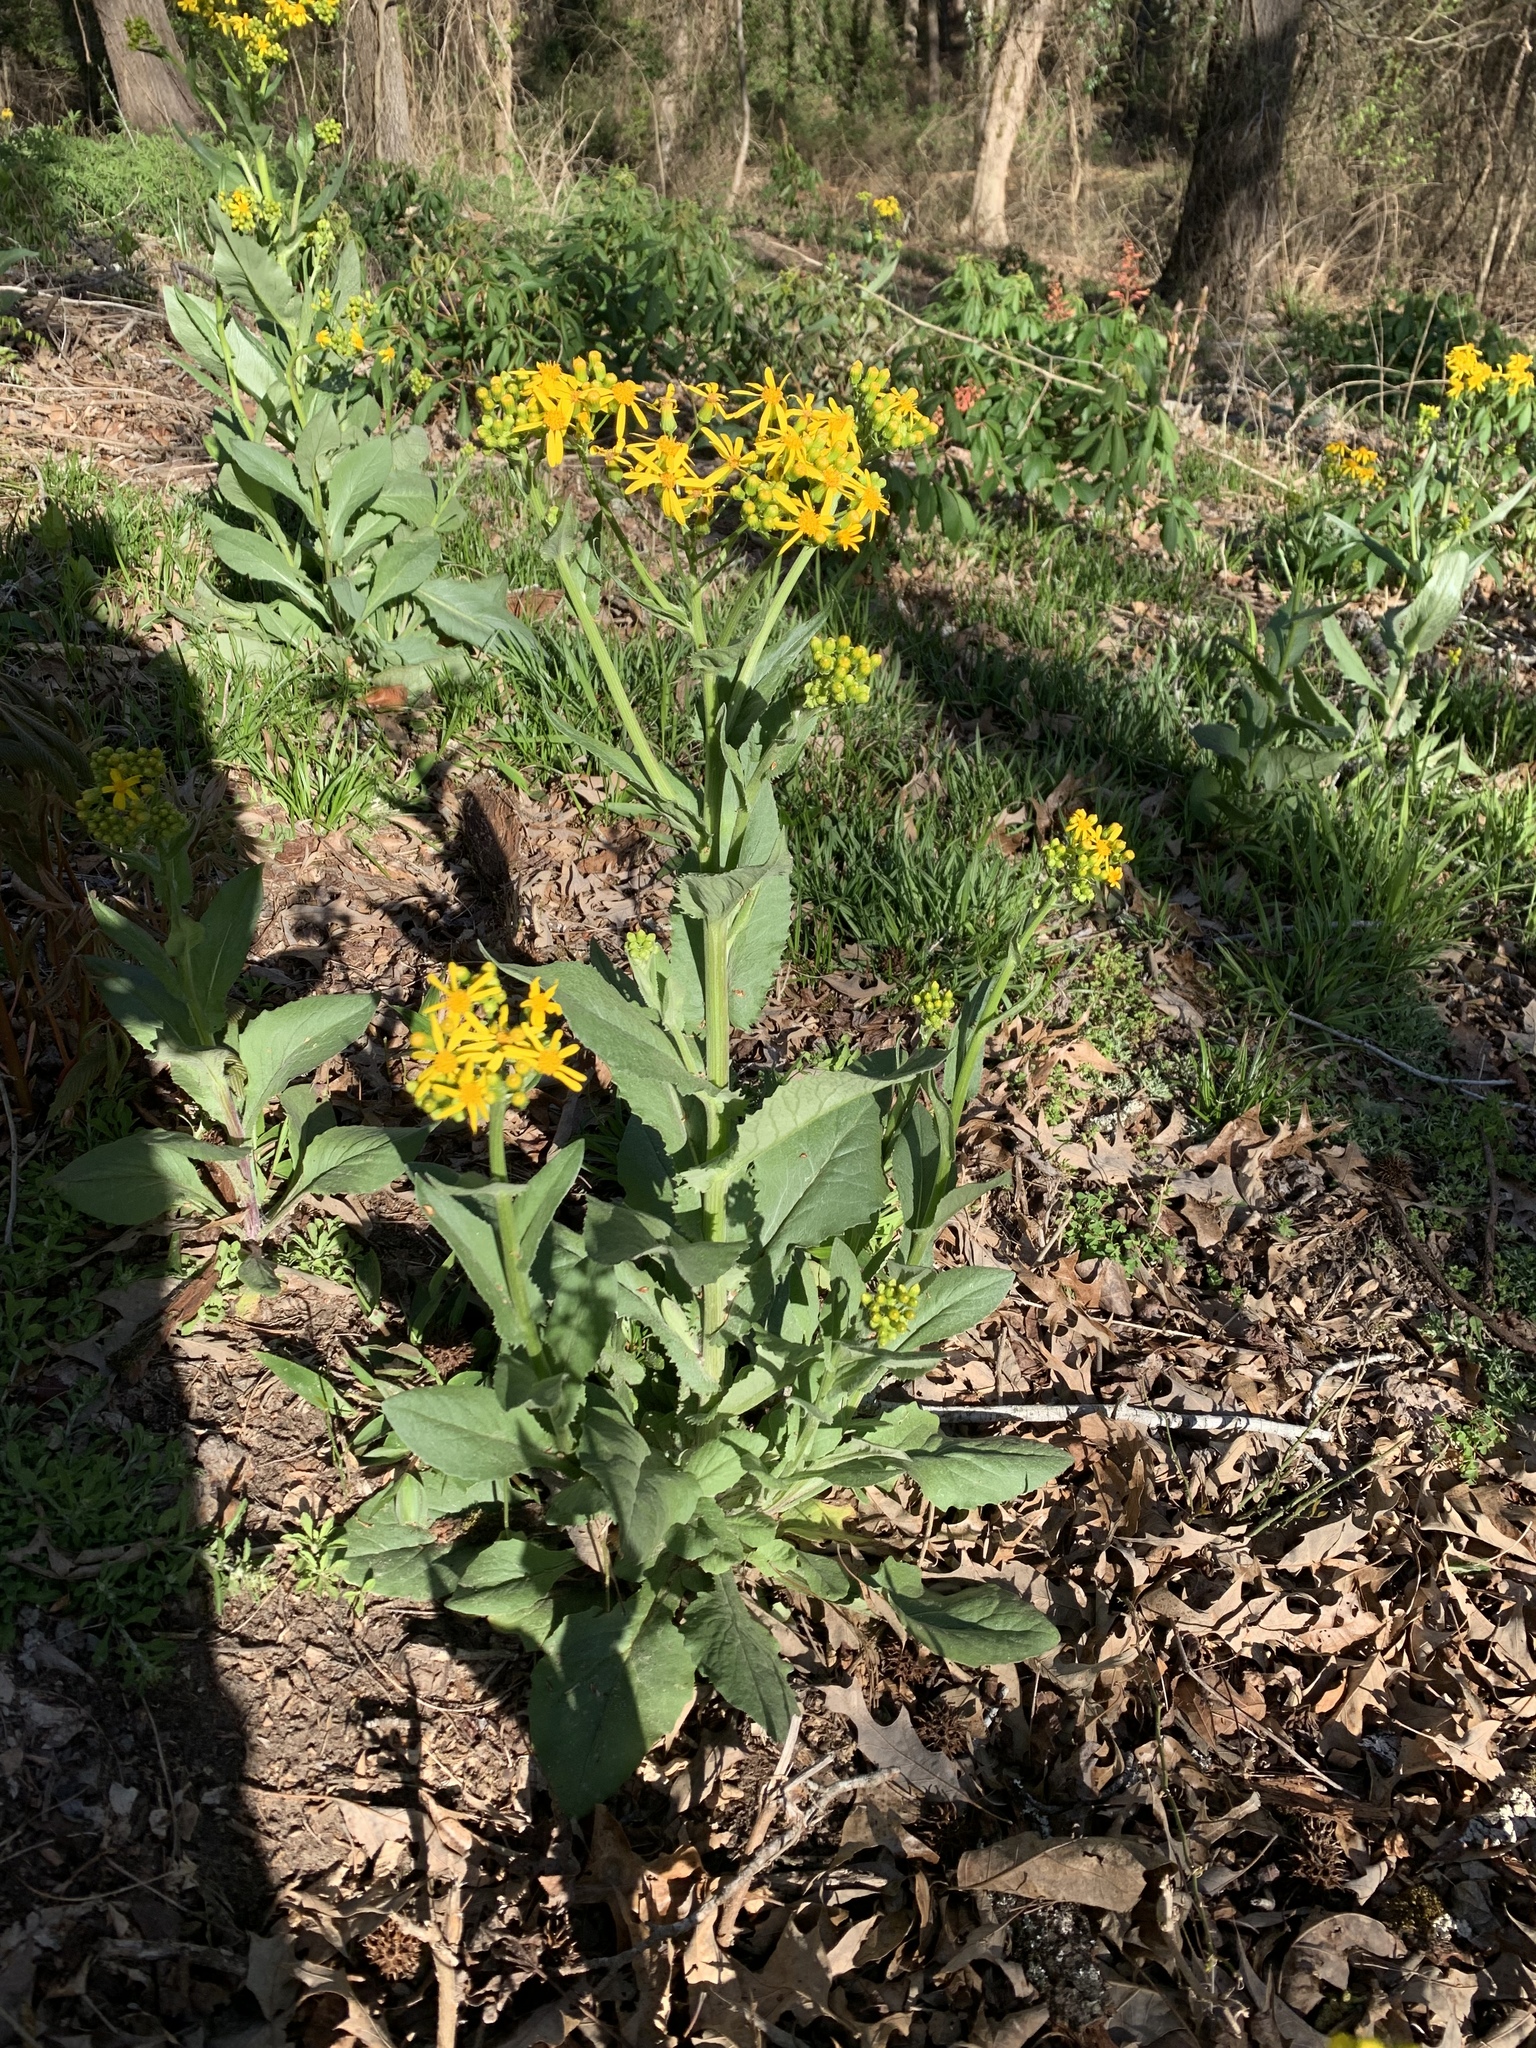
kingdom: Plantae
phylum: Tracheophyta
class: Magnoliopsida
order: Asterales
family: Asteraceae
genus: Senecio
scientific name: Senecio ampullaceus
